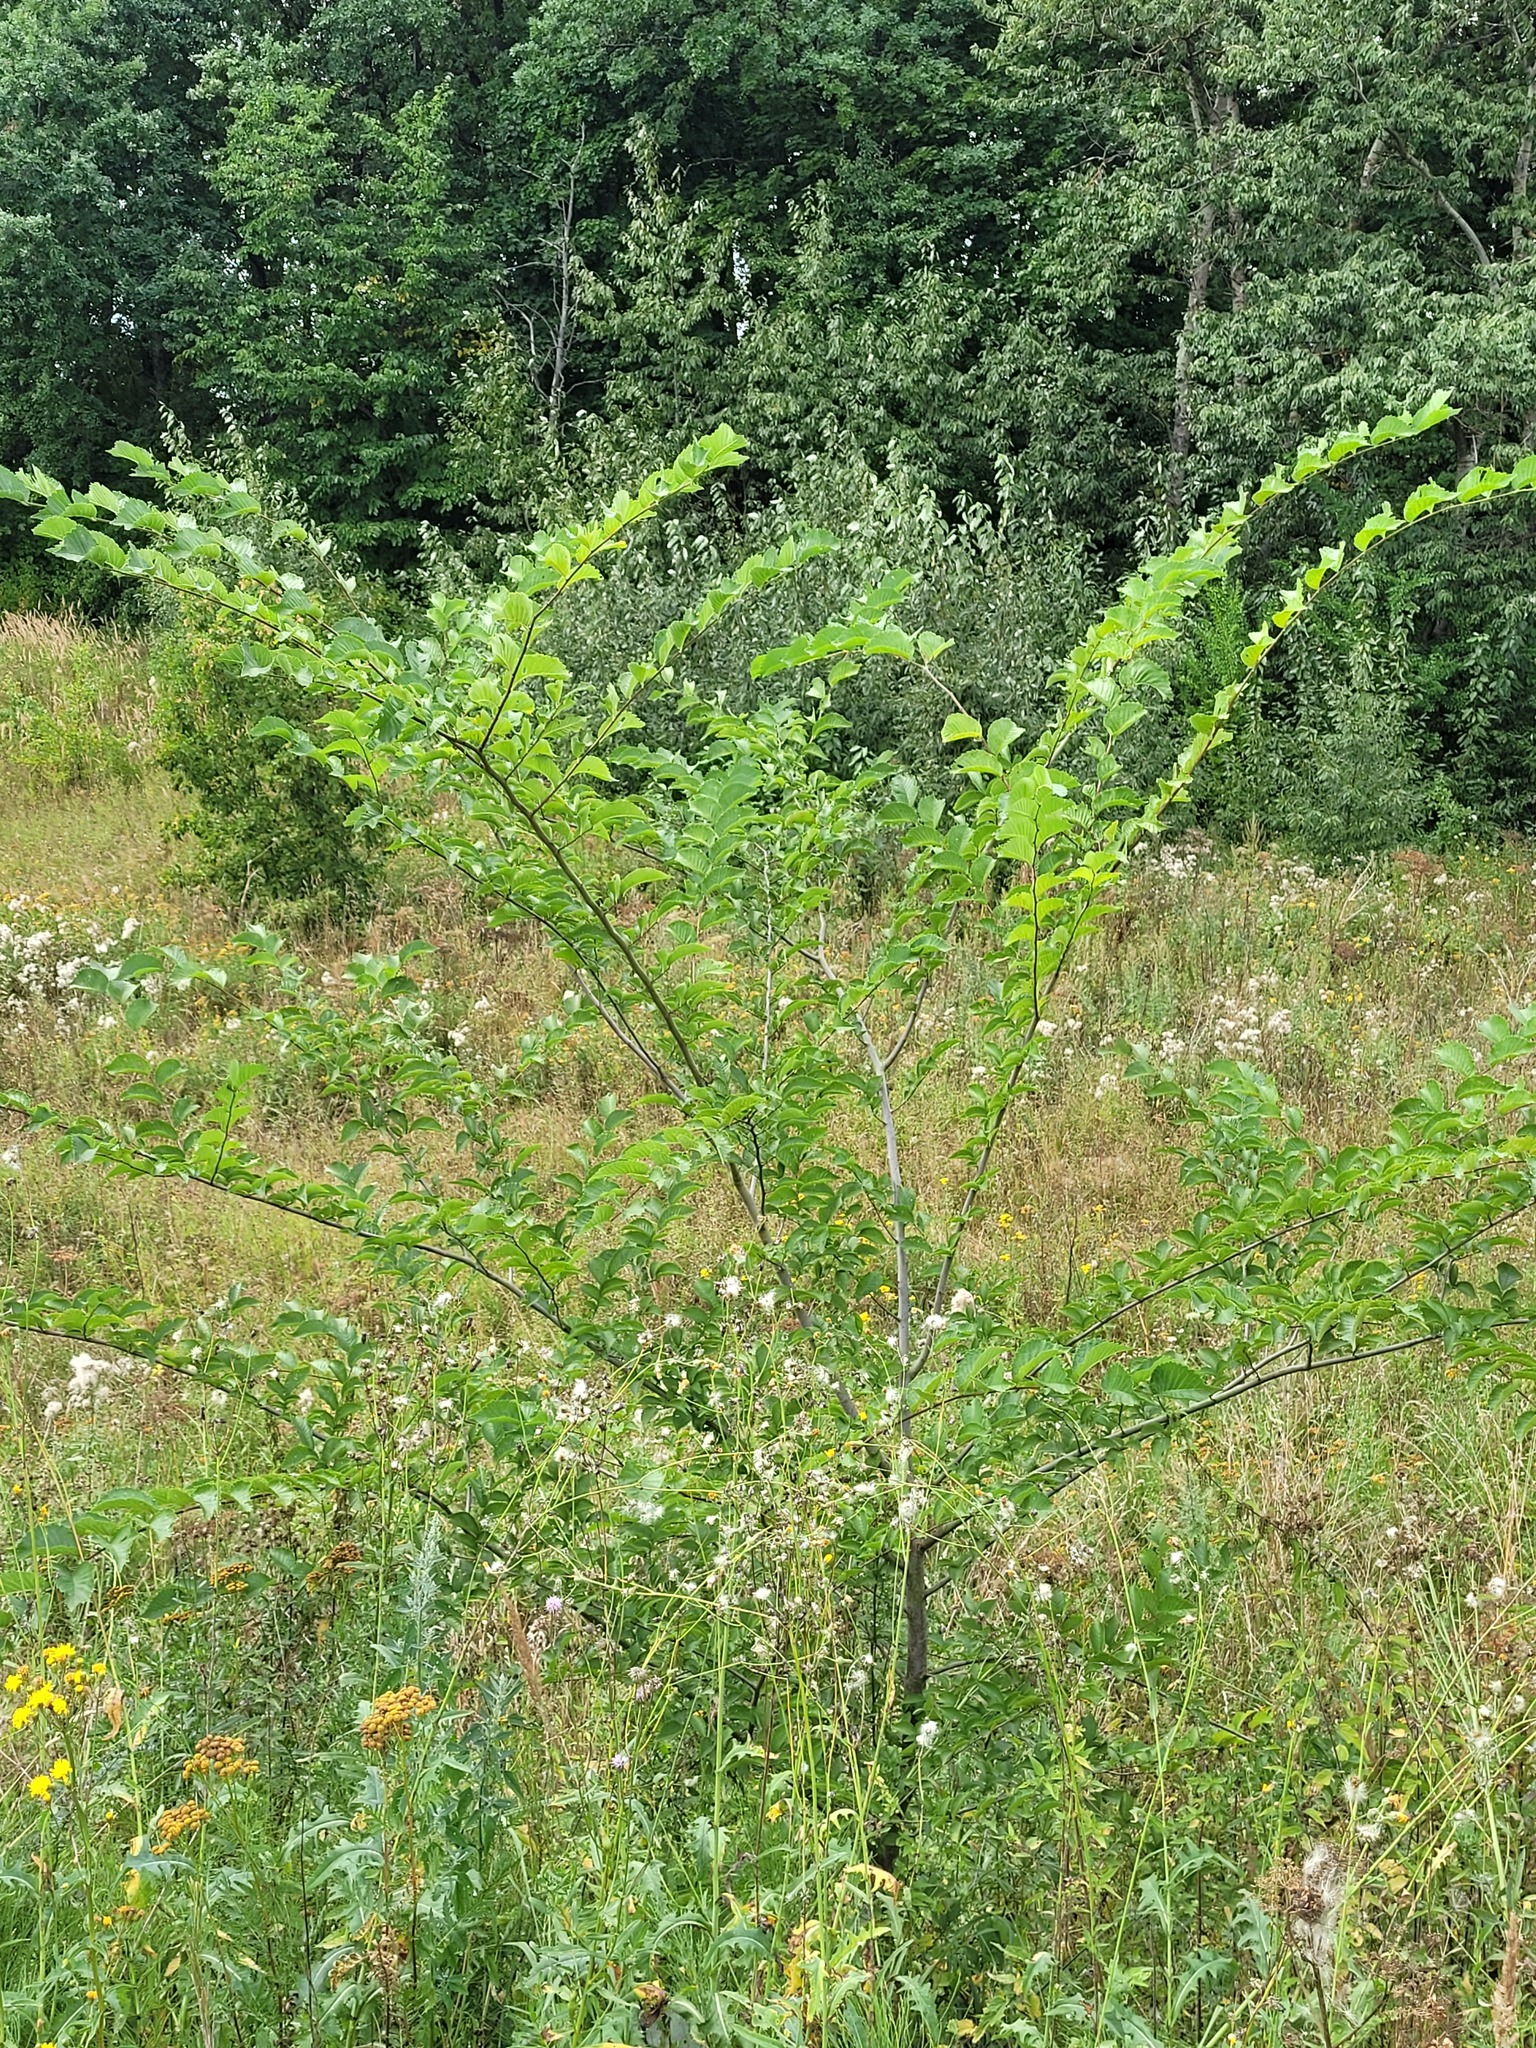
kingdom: Plantae
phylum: Tracheophyta
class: Magnoliopsida
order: Rosales
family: Ulmaceae
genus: Ulmus
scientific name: Ulmus glabra
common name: Wych elm
